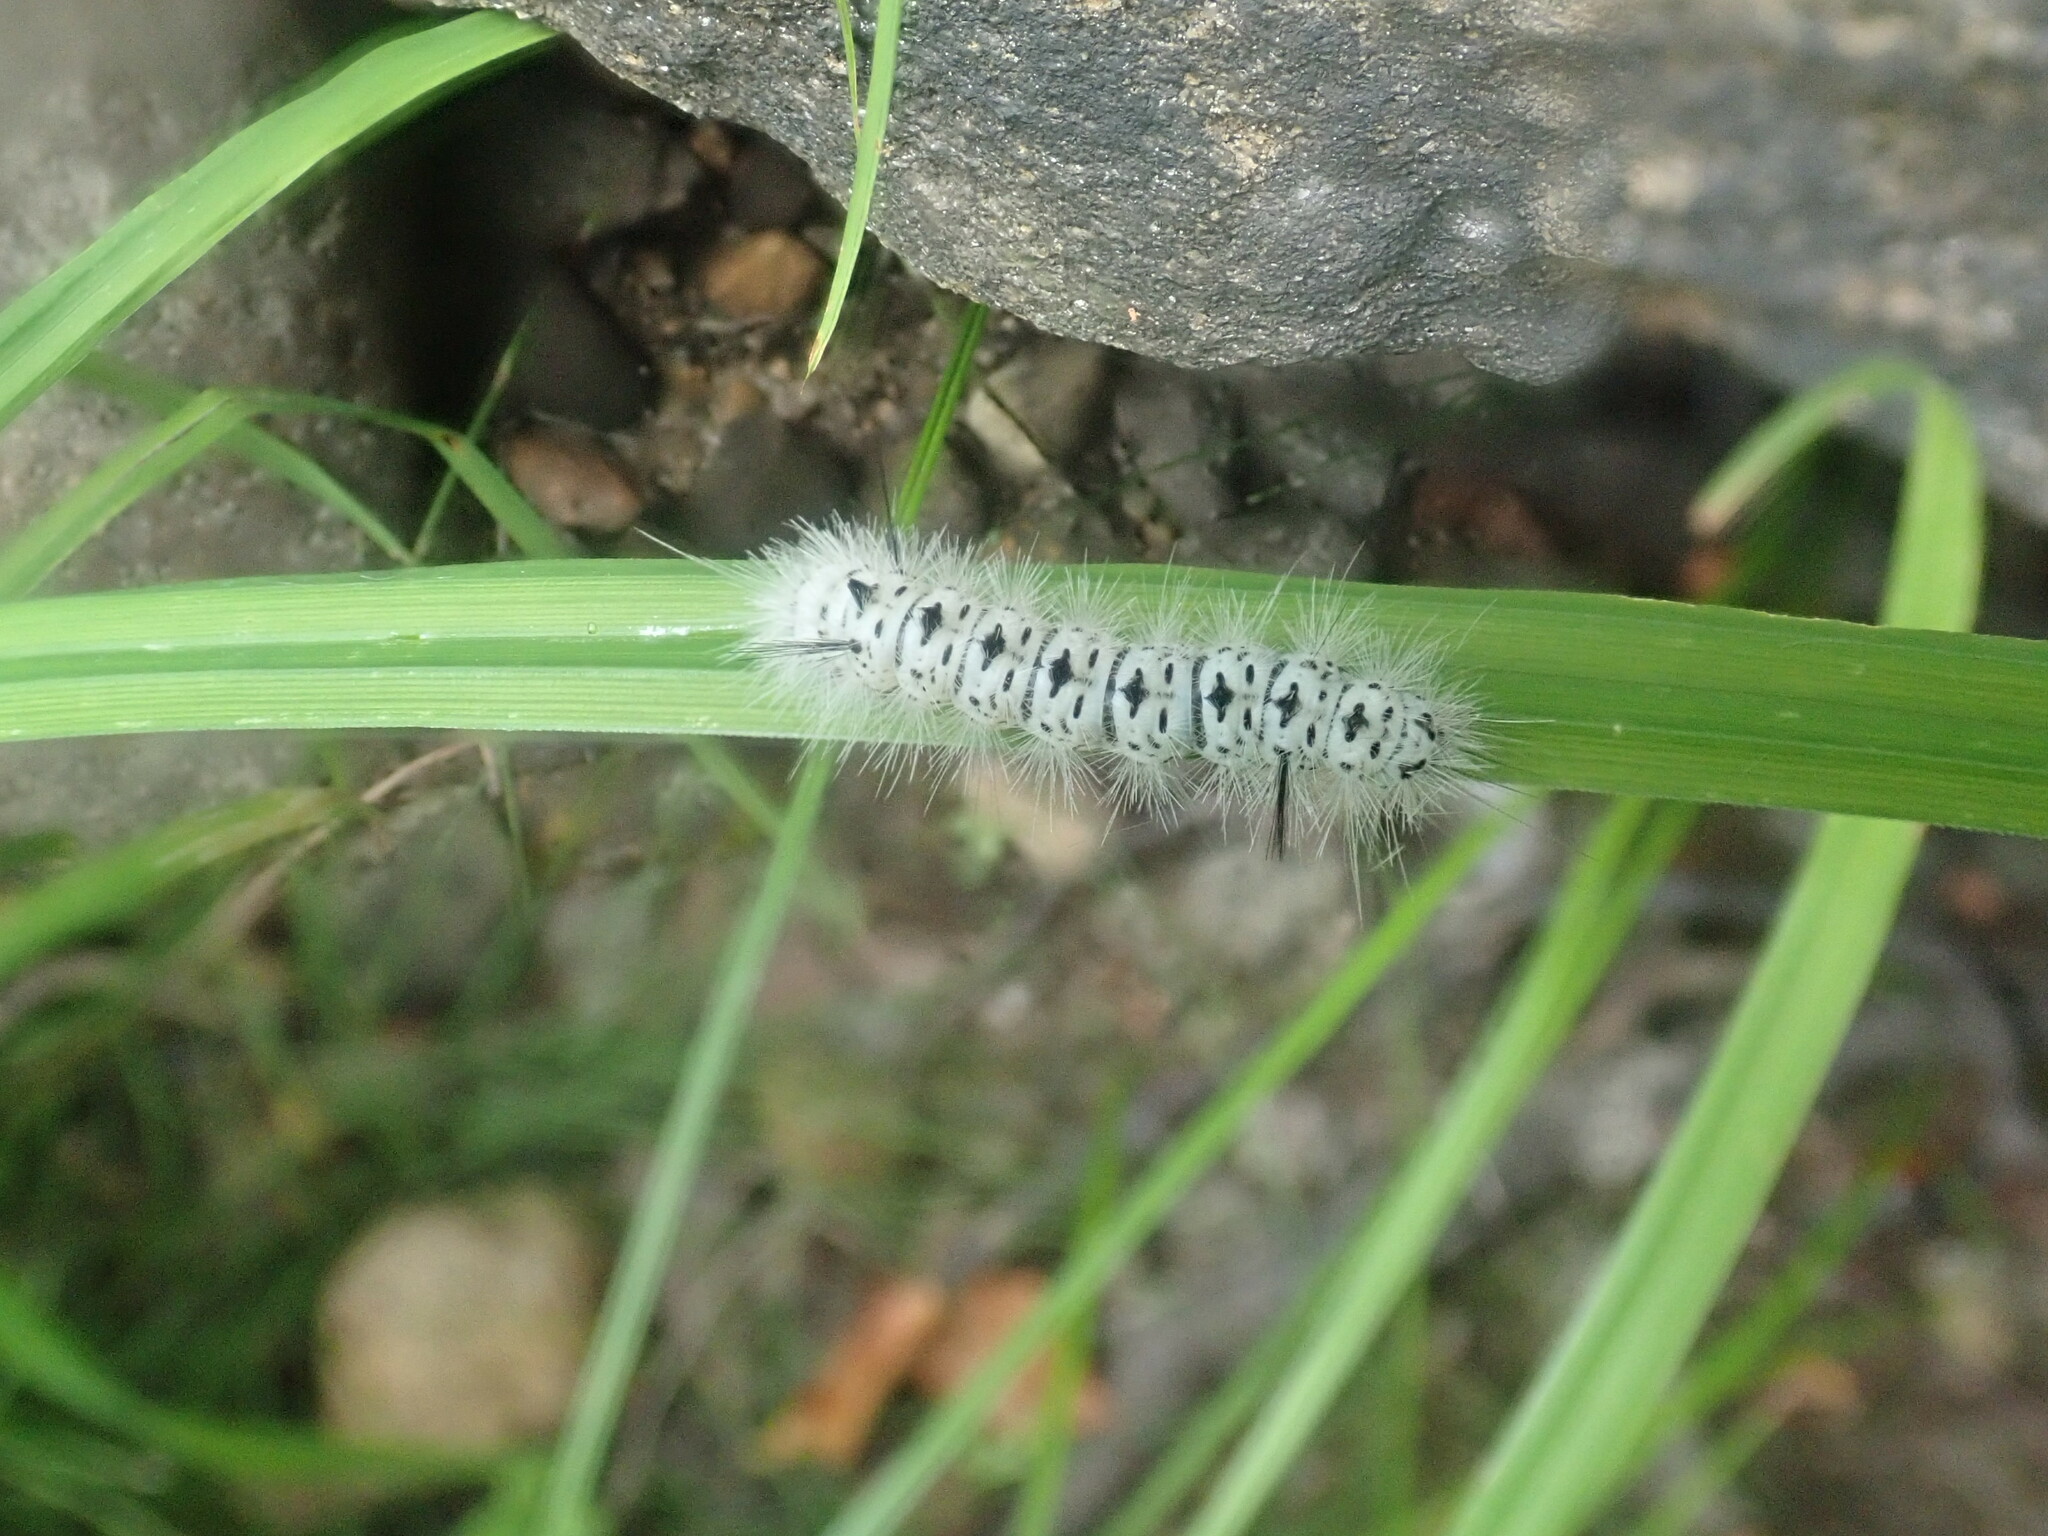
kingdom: Animalia
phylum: Arthropoda
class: Insecta
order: Lepidoptera
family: Erebidae
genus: Lophocampa
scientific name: Lophocampa caryae
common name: Hickory tussock moth
